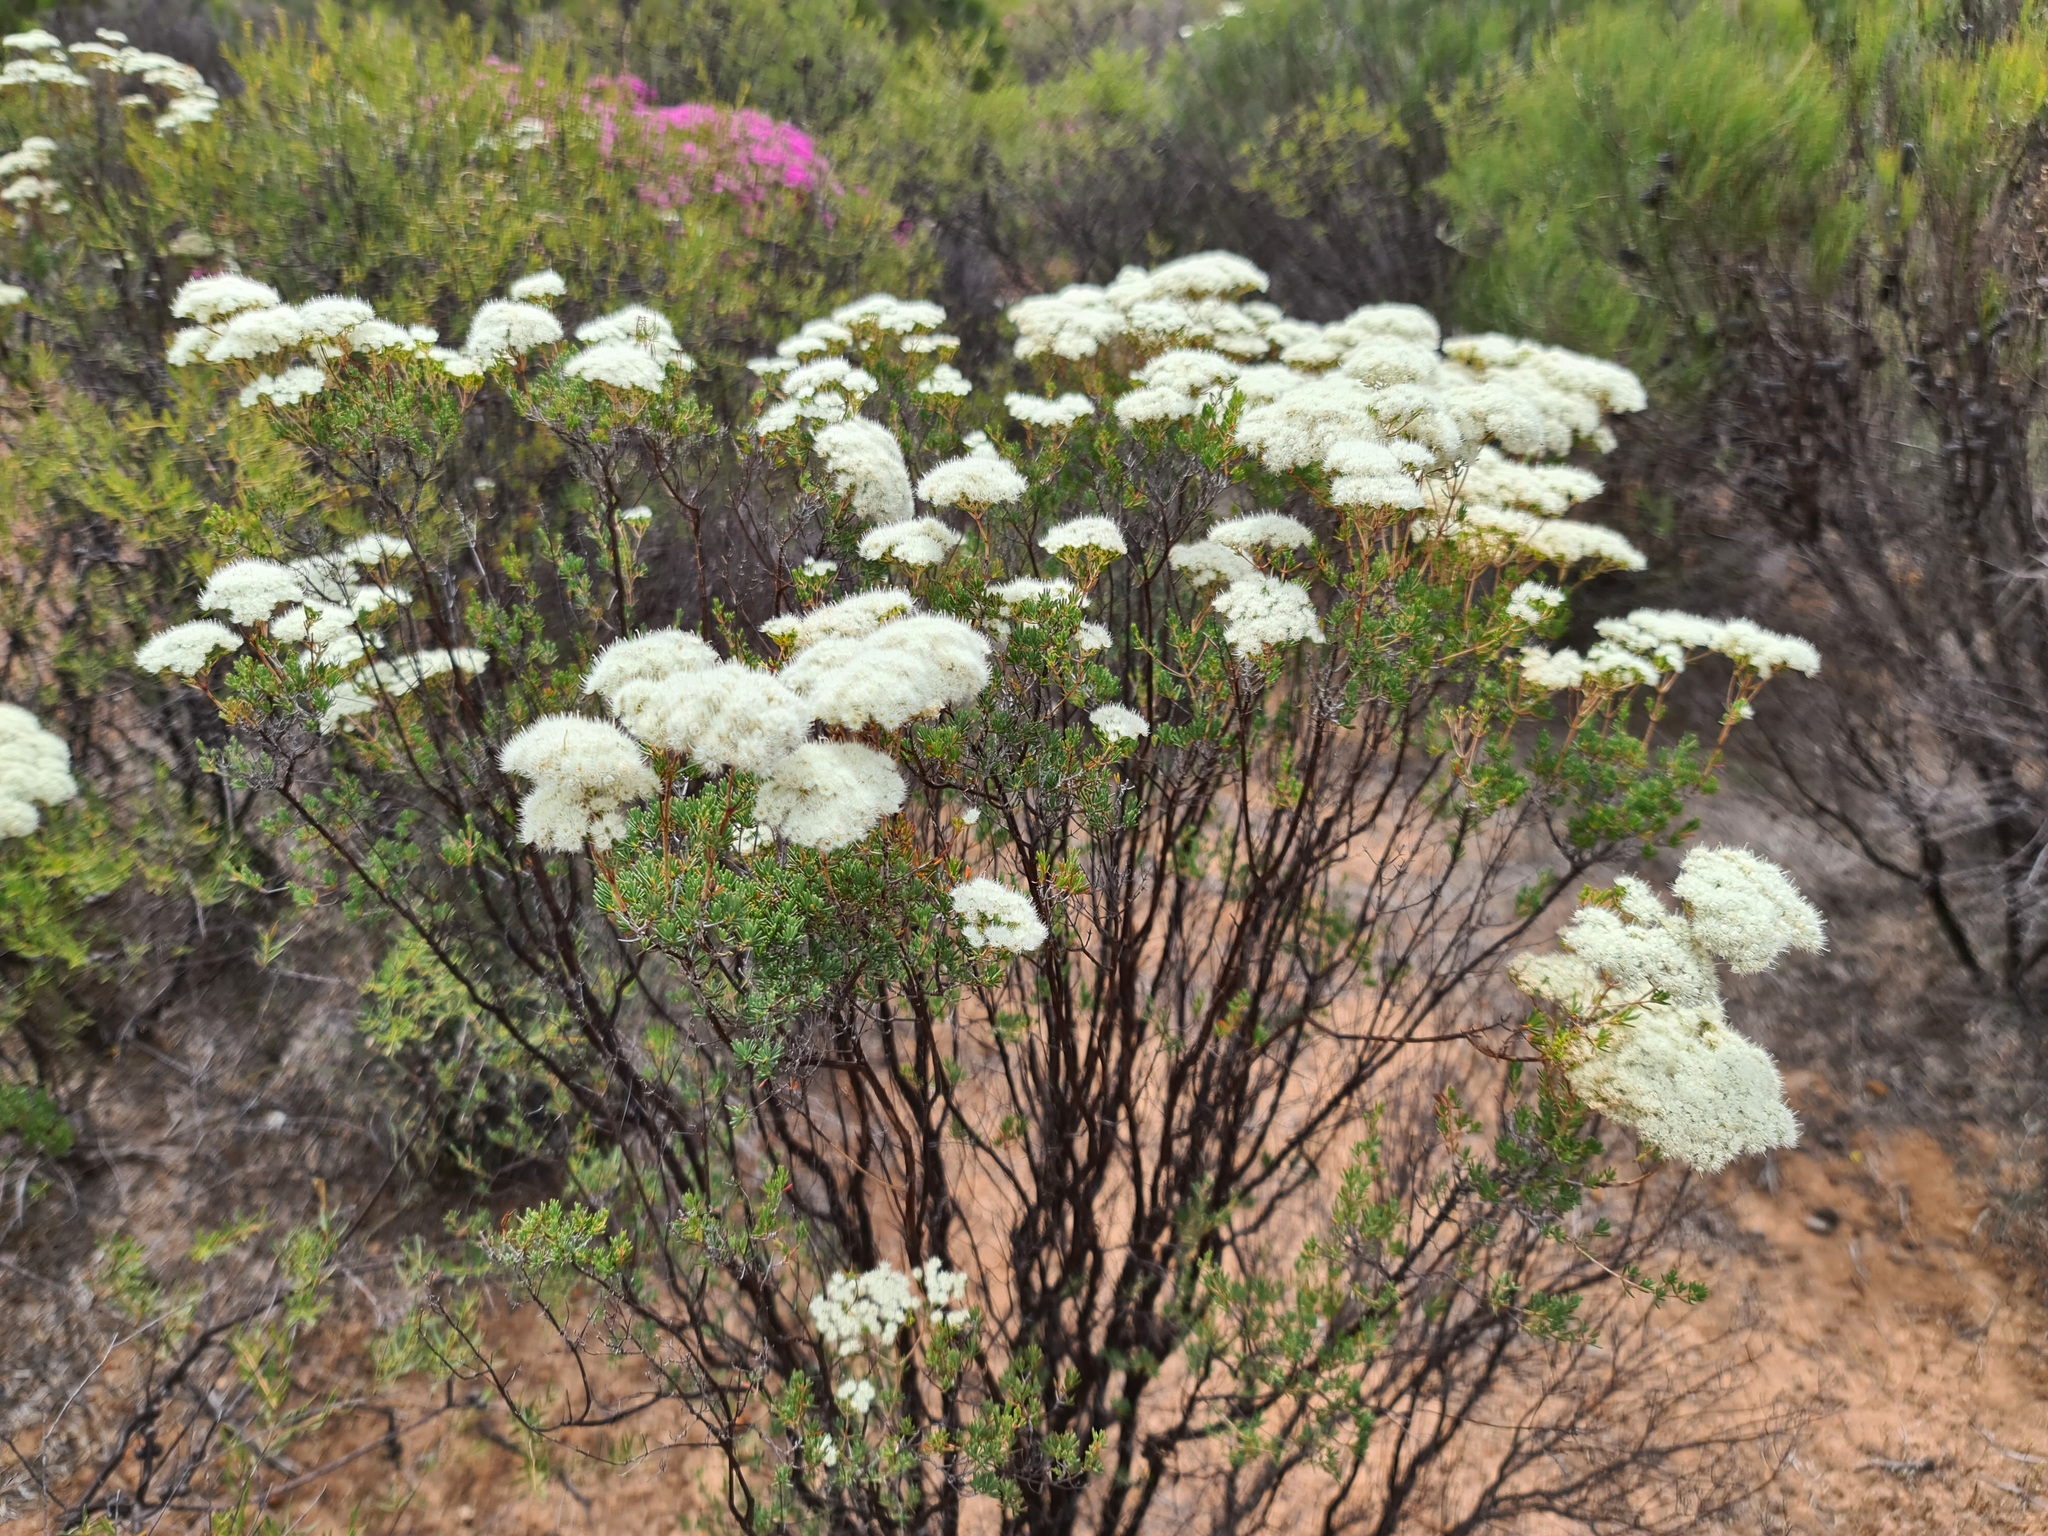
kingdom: Plantae
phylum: Tracheophyta
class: Magnoliopsida
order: Myrtales
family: Myrtaceae
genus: Verticordia
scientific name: Verticordia polytricha
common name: Northern-cauliflower
